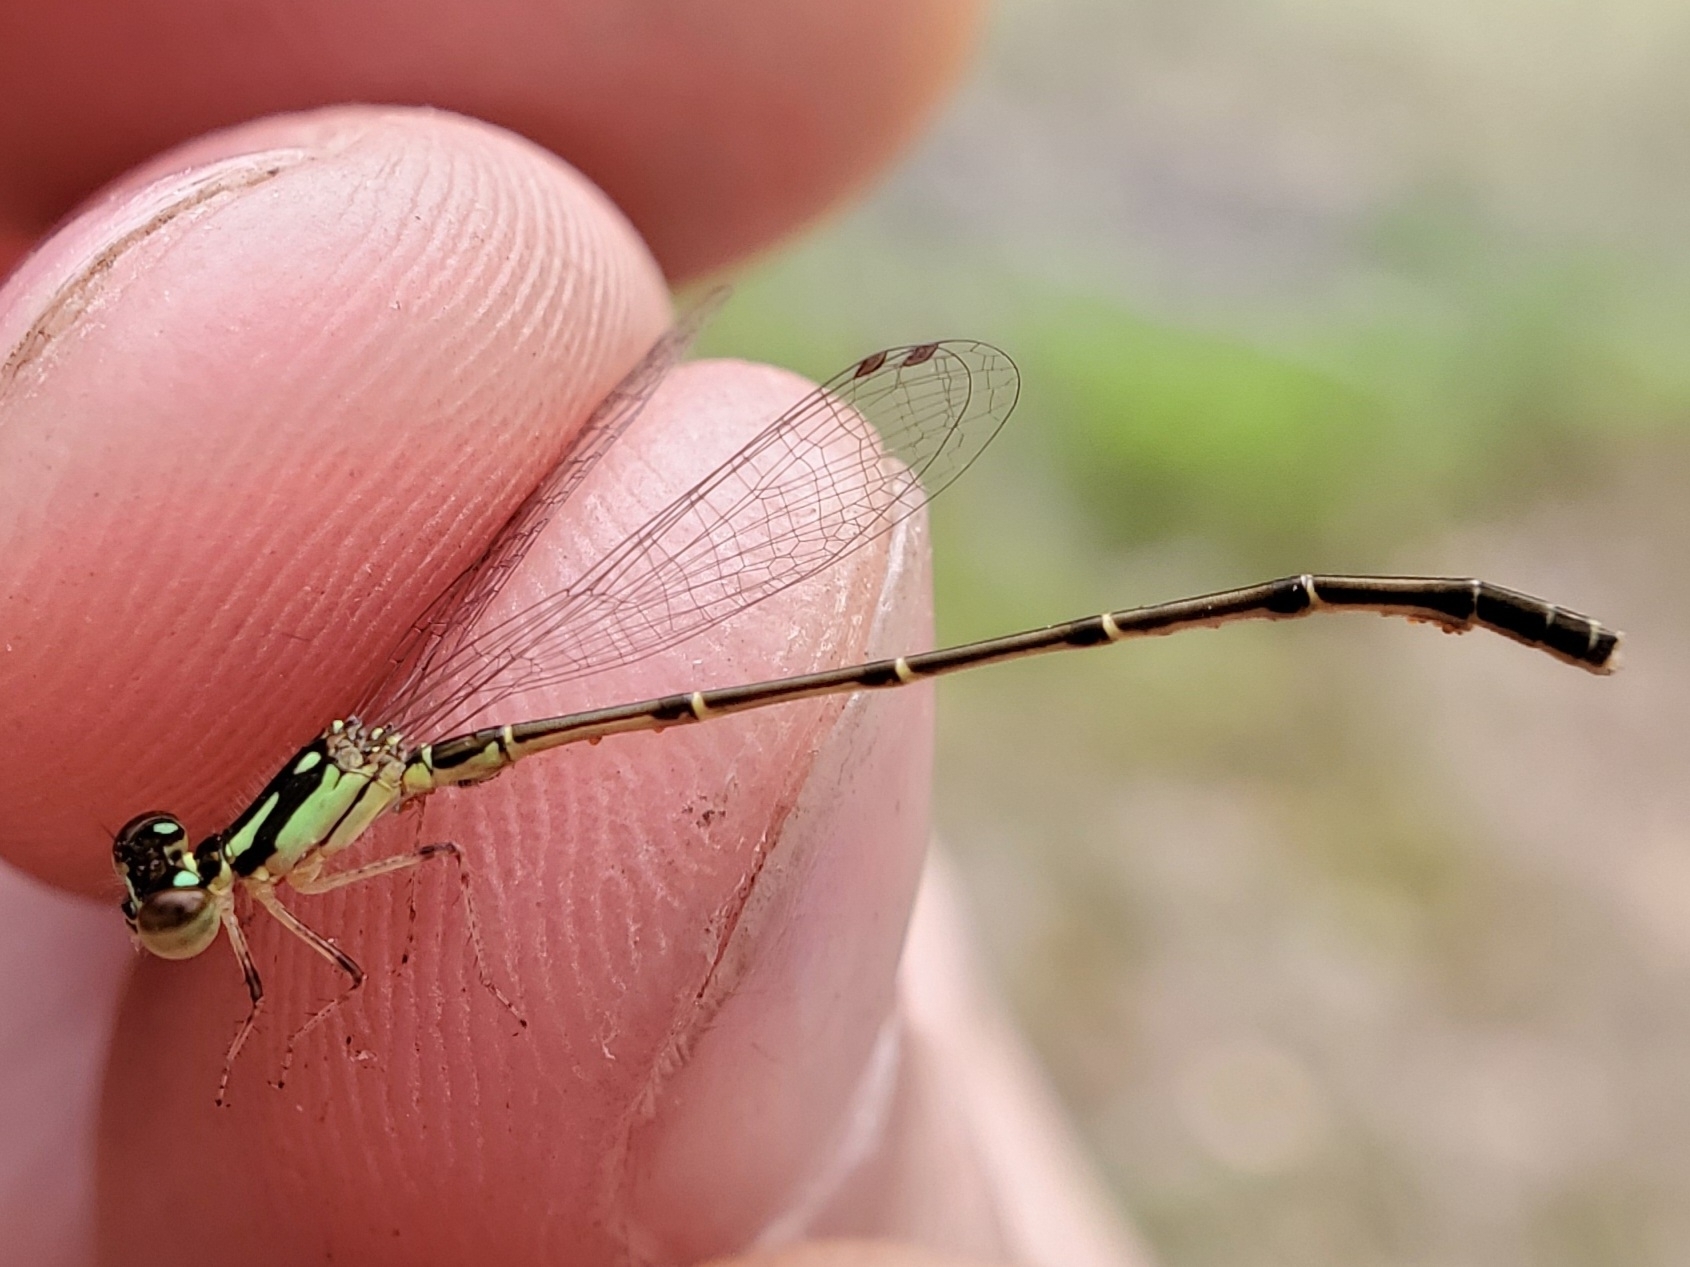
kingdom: Animalia
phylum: Arthropoda
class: Insecta
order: Odonata
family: Coenagrionidae
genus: Ischnura
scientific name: Ischnura posita
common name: Fragile forktail
